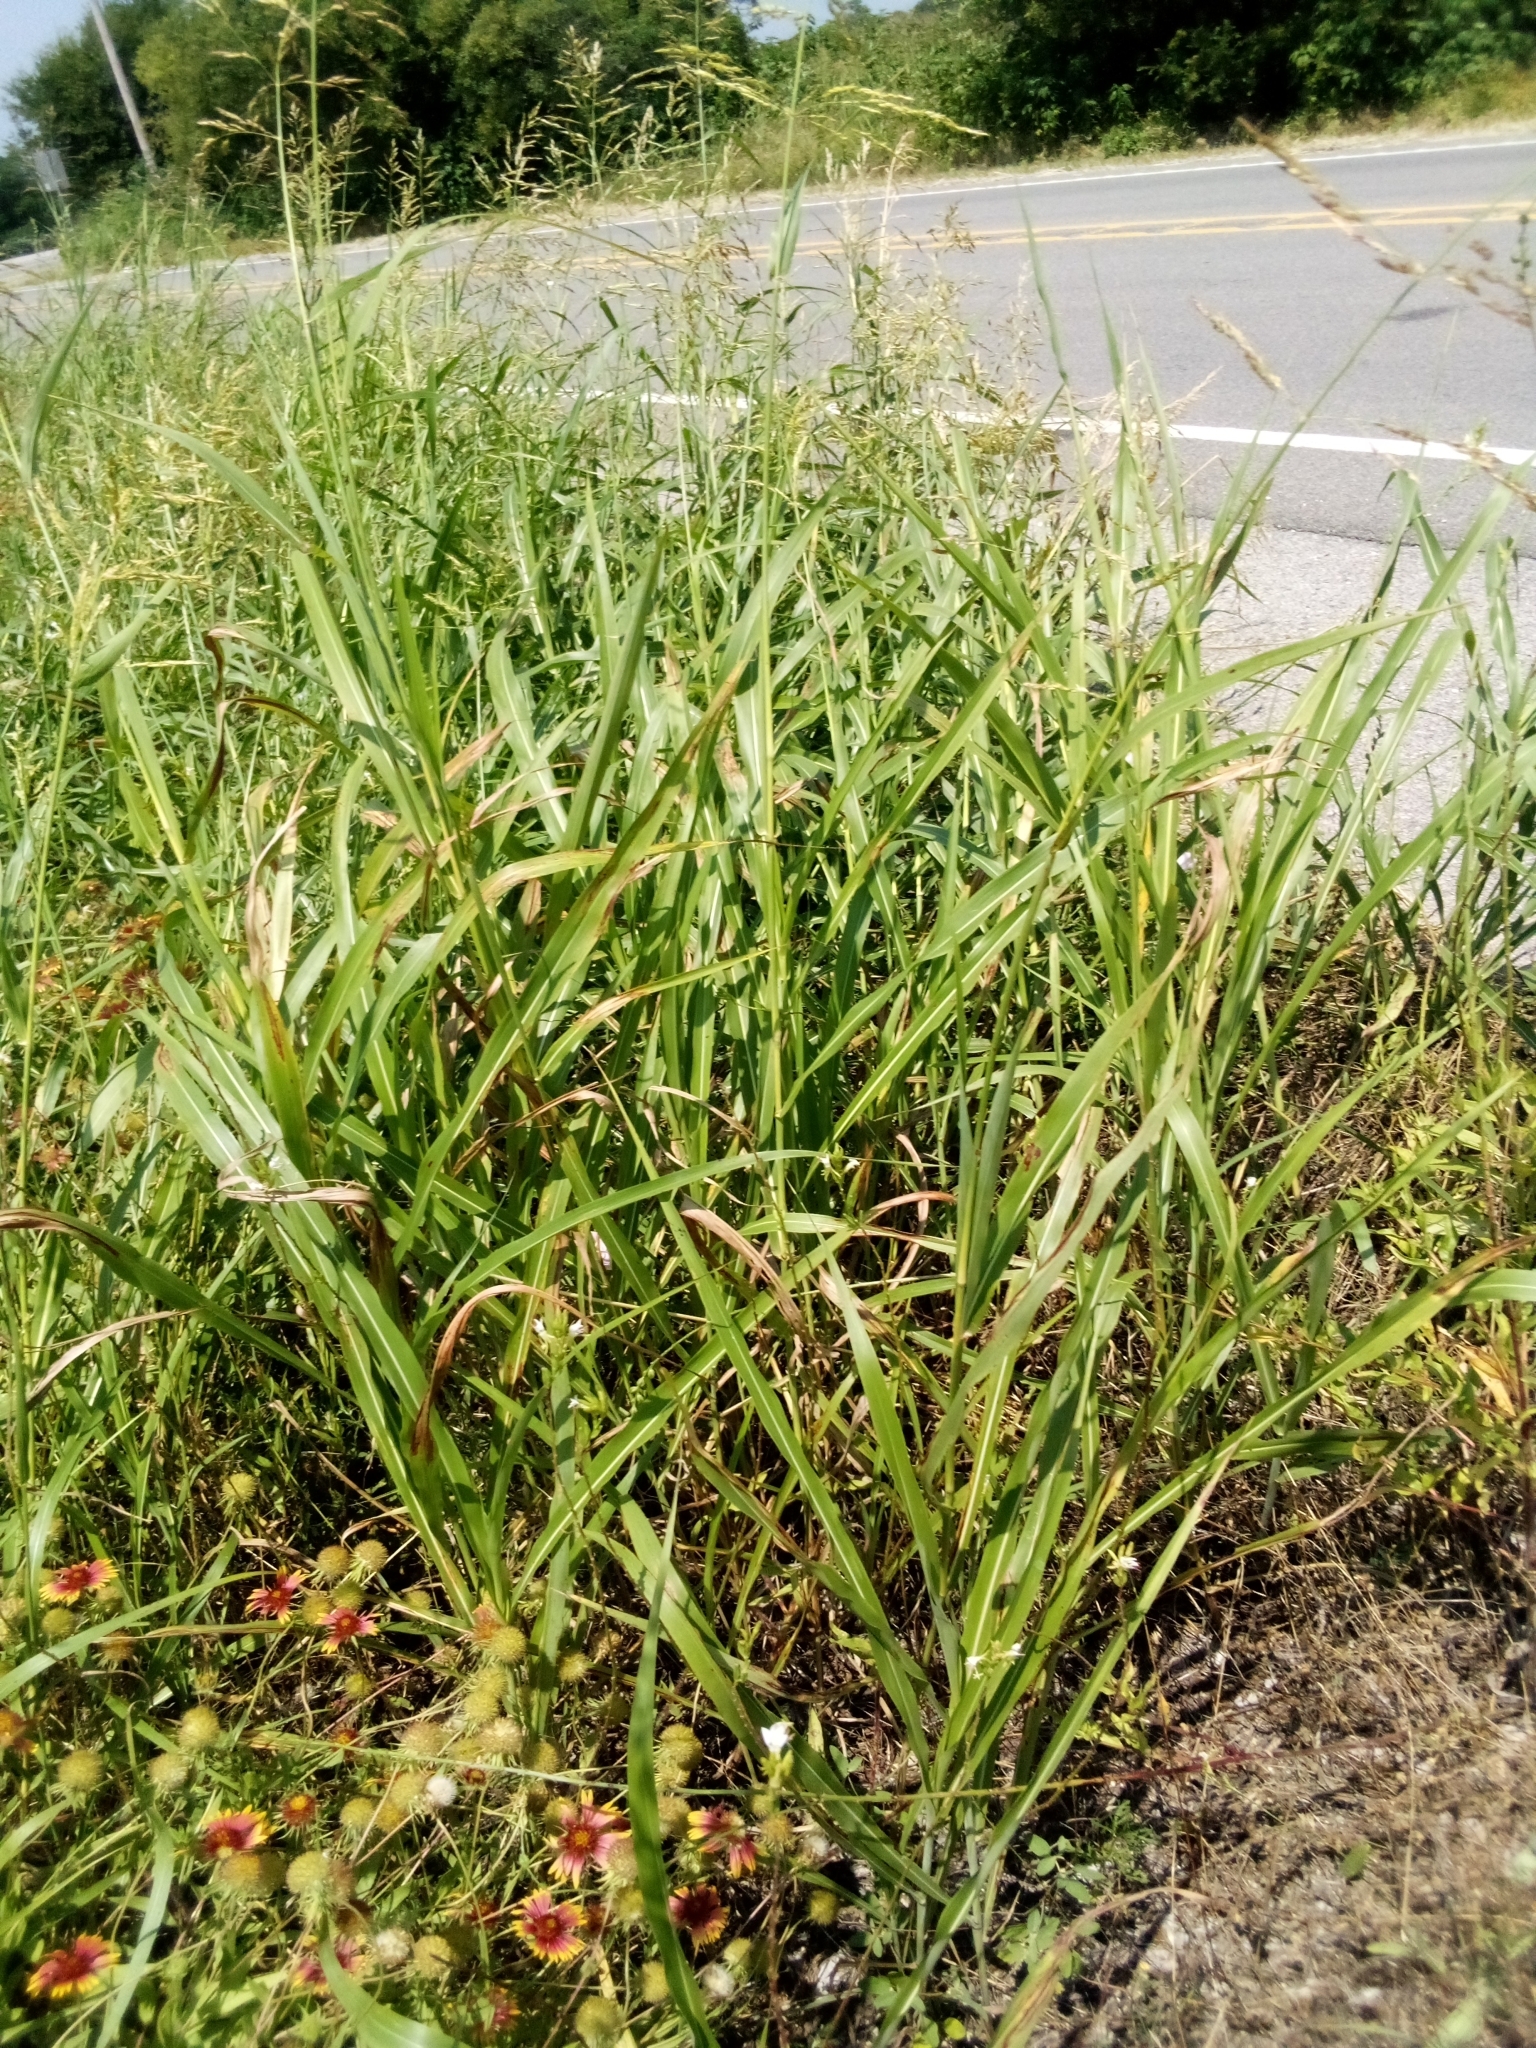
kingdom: Plantae
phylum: Tracheophyta
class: Liliopsida
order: Poales
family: Poaceae
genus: Sorghum
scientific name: Sorghum halepense
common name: Johnson-grass
